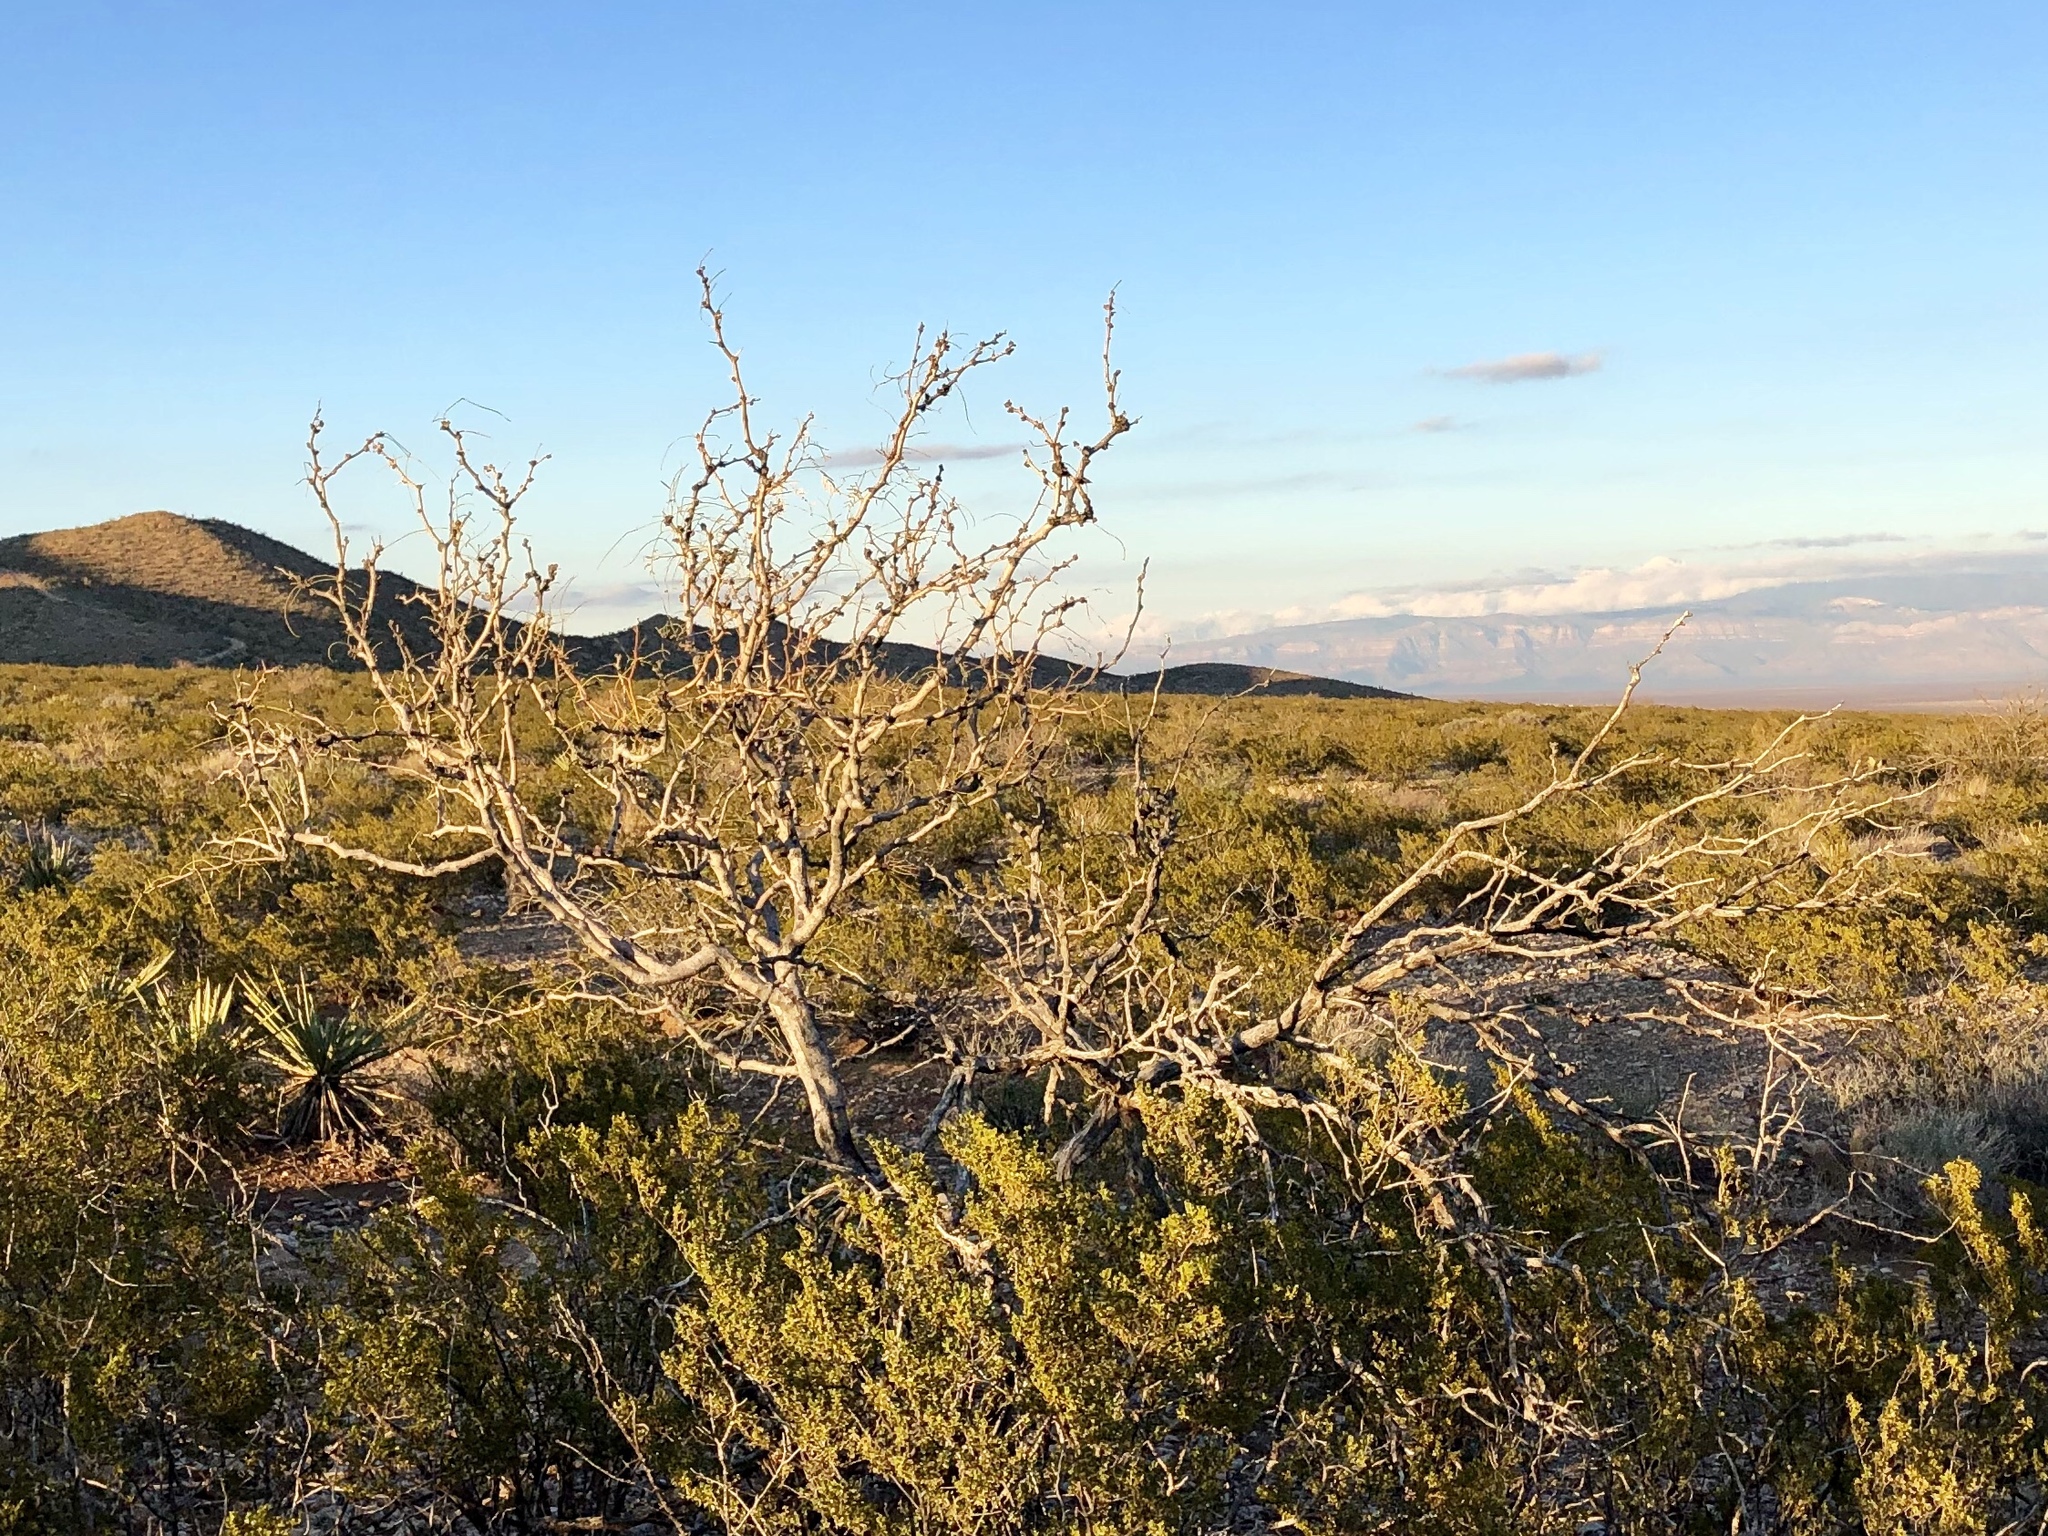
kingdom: Plantae
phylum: Tracheophyta
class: Magnoliopsida
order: Fabales
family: Fabaceae
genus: Prosopis
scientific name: Prosopis glandulosa
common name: Honey mesquite
